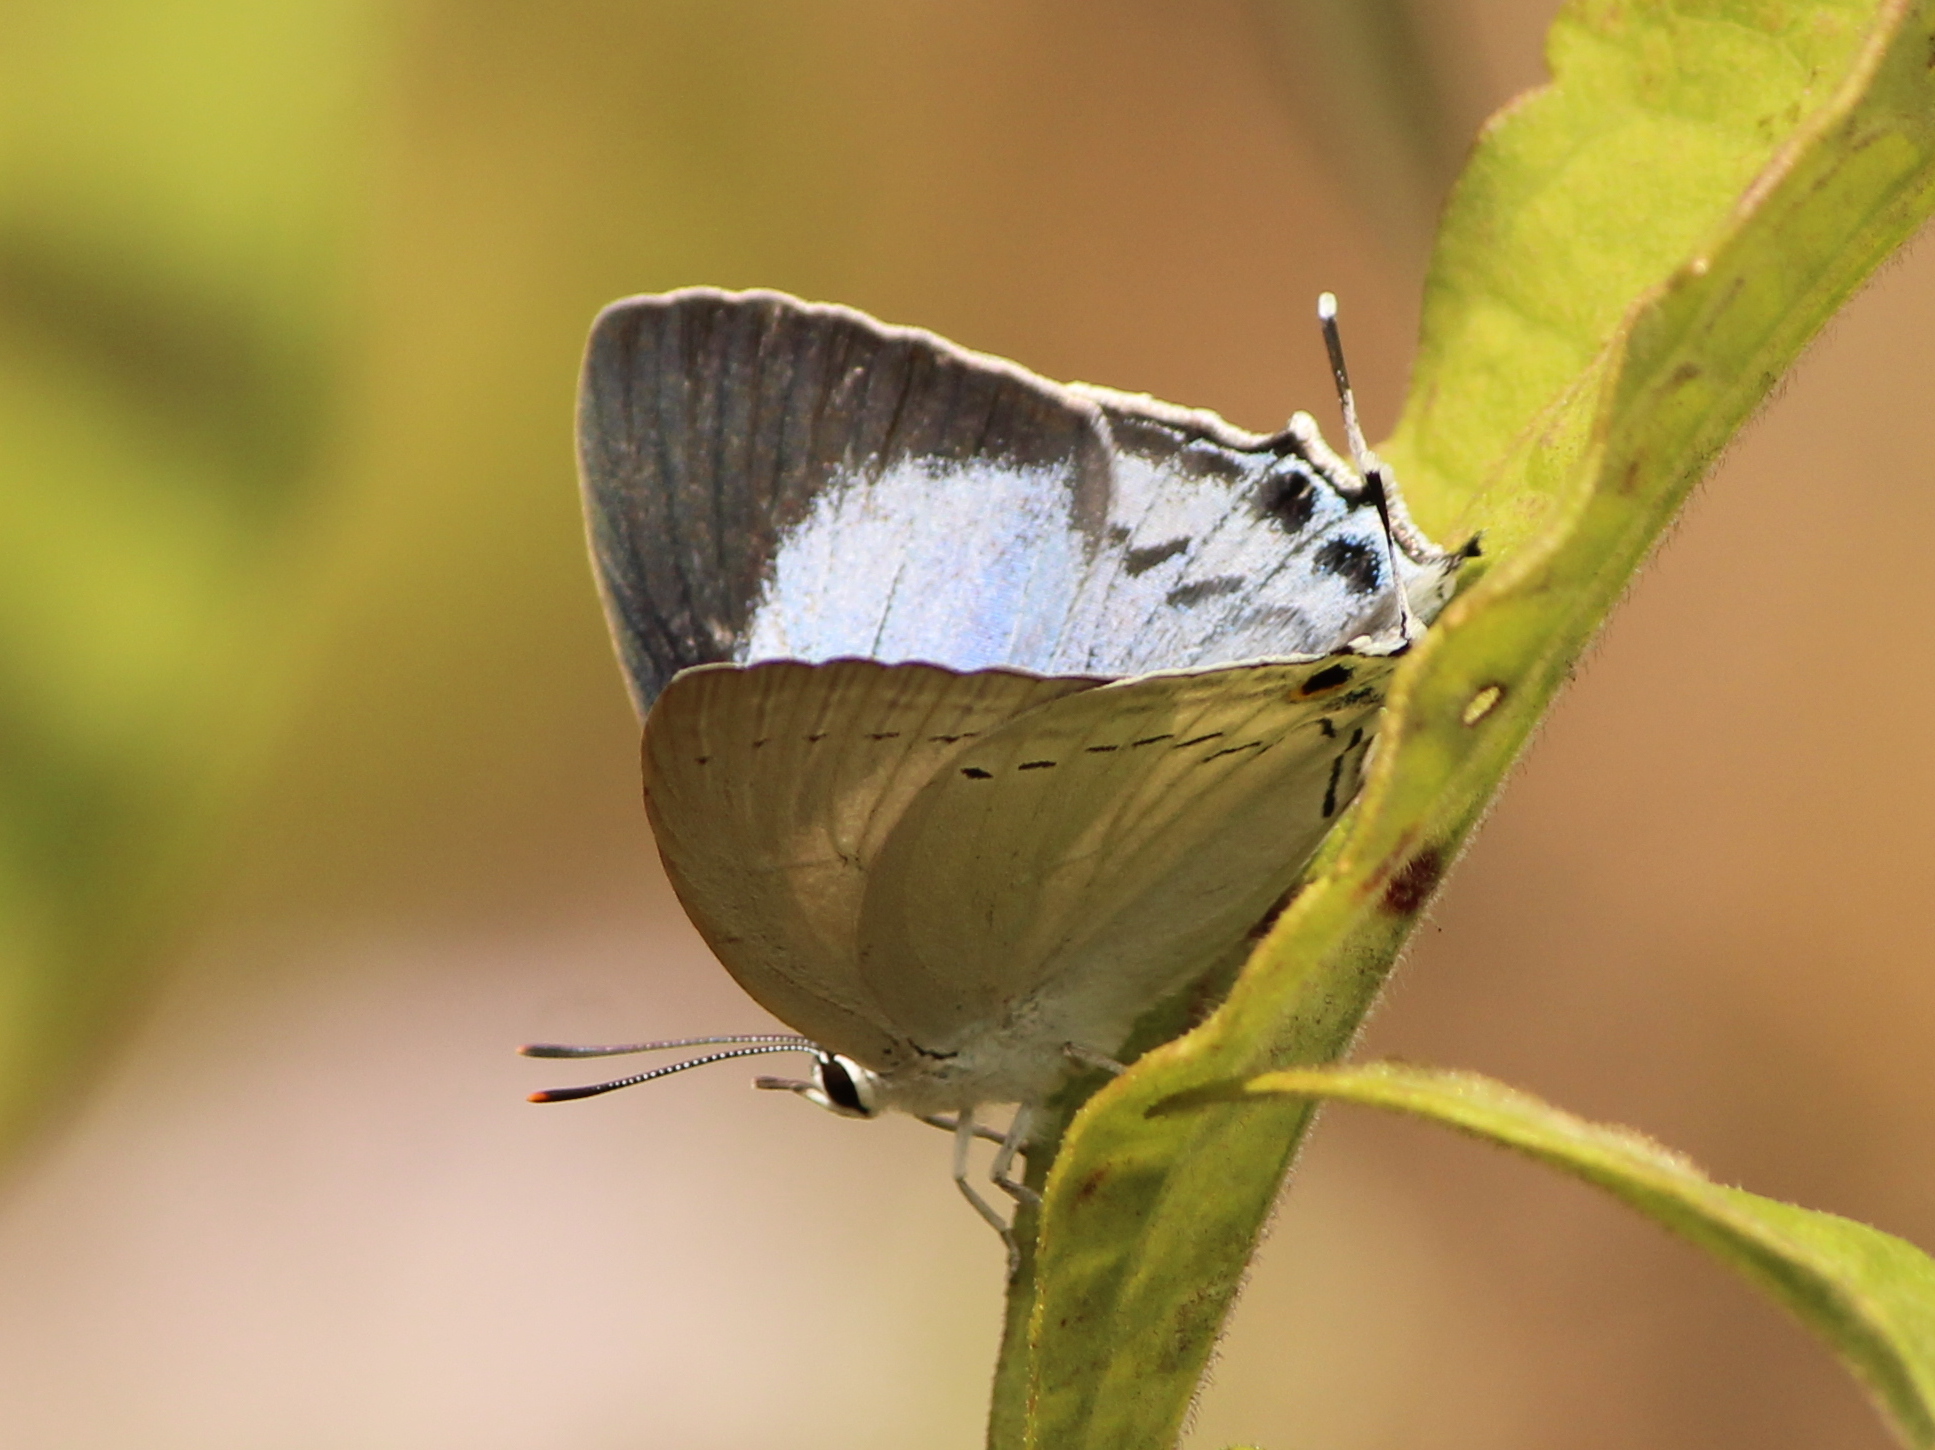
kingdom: Animalia
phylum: Arthropoda
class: Insecta
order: Lepidoptera
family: Lycaenidae
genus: Tajuria
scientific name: Tajuria cippus
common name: Peacock royal
